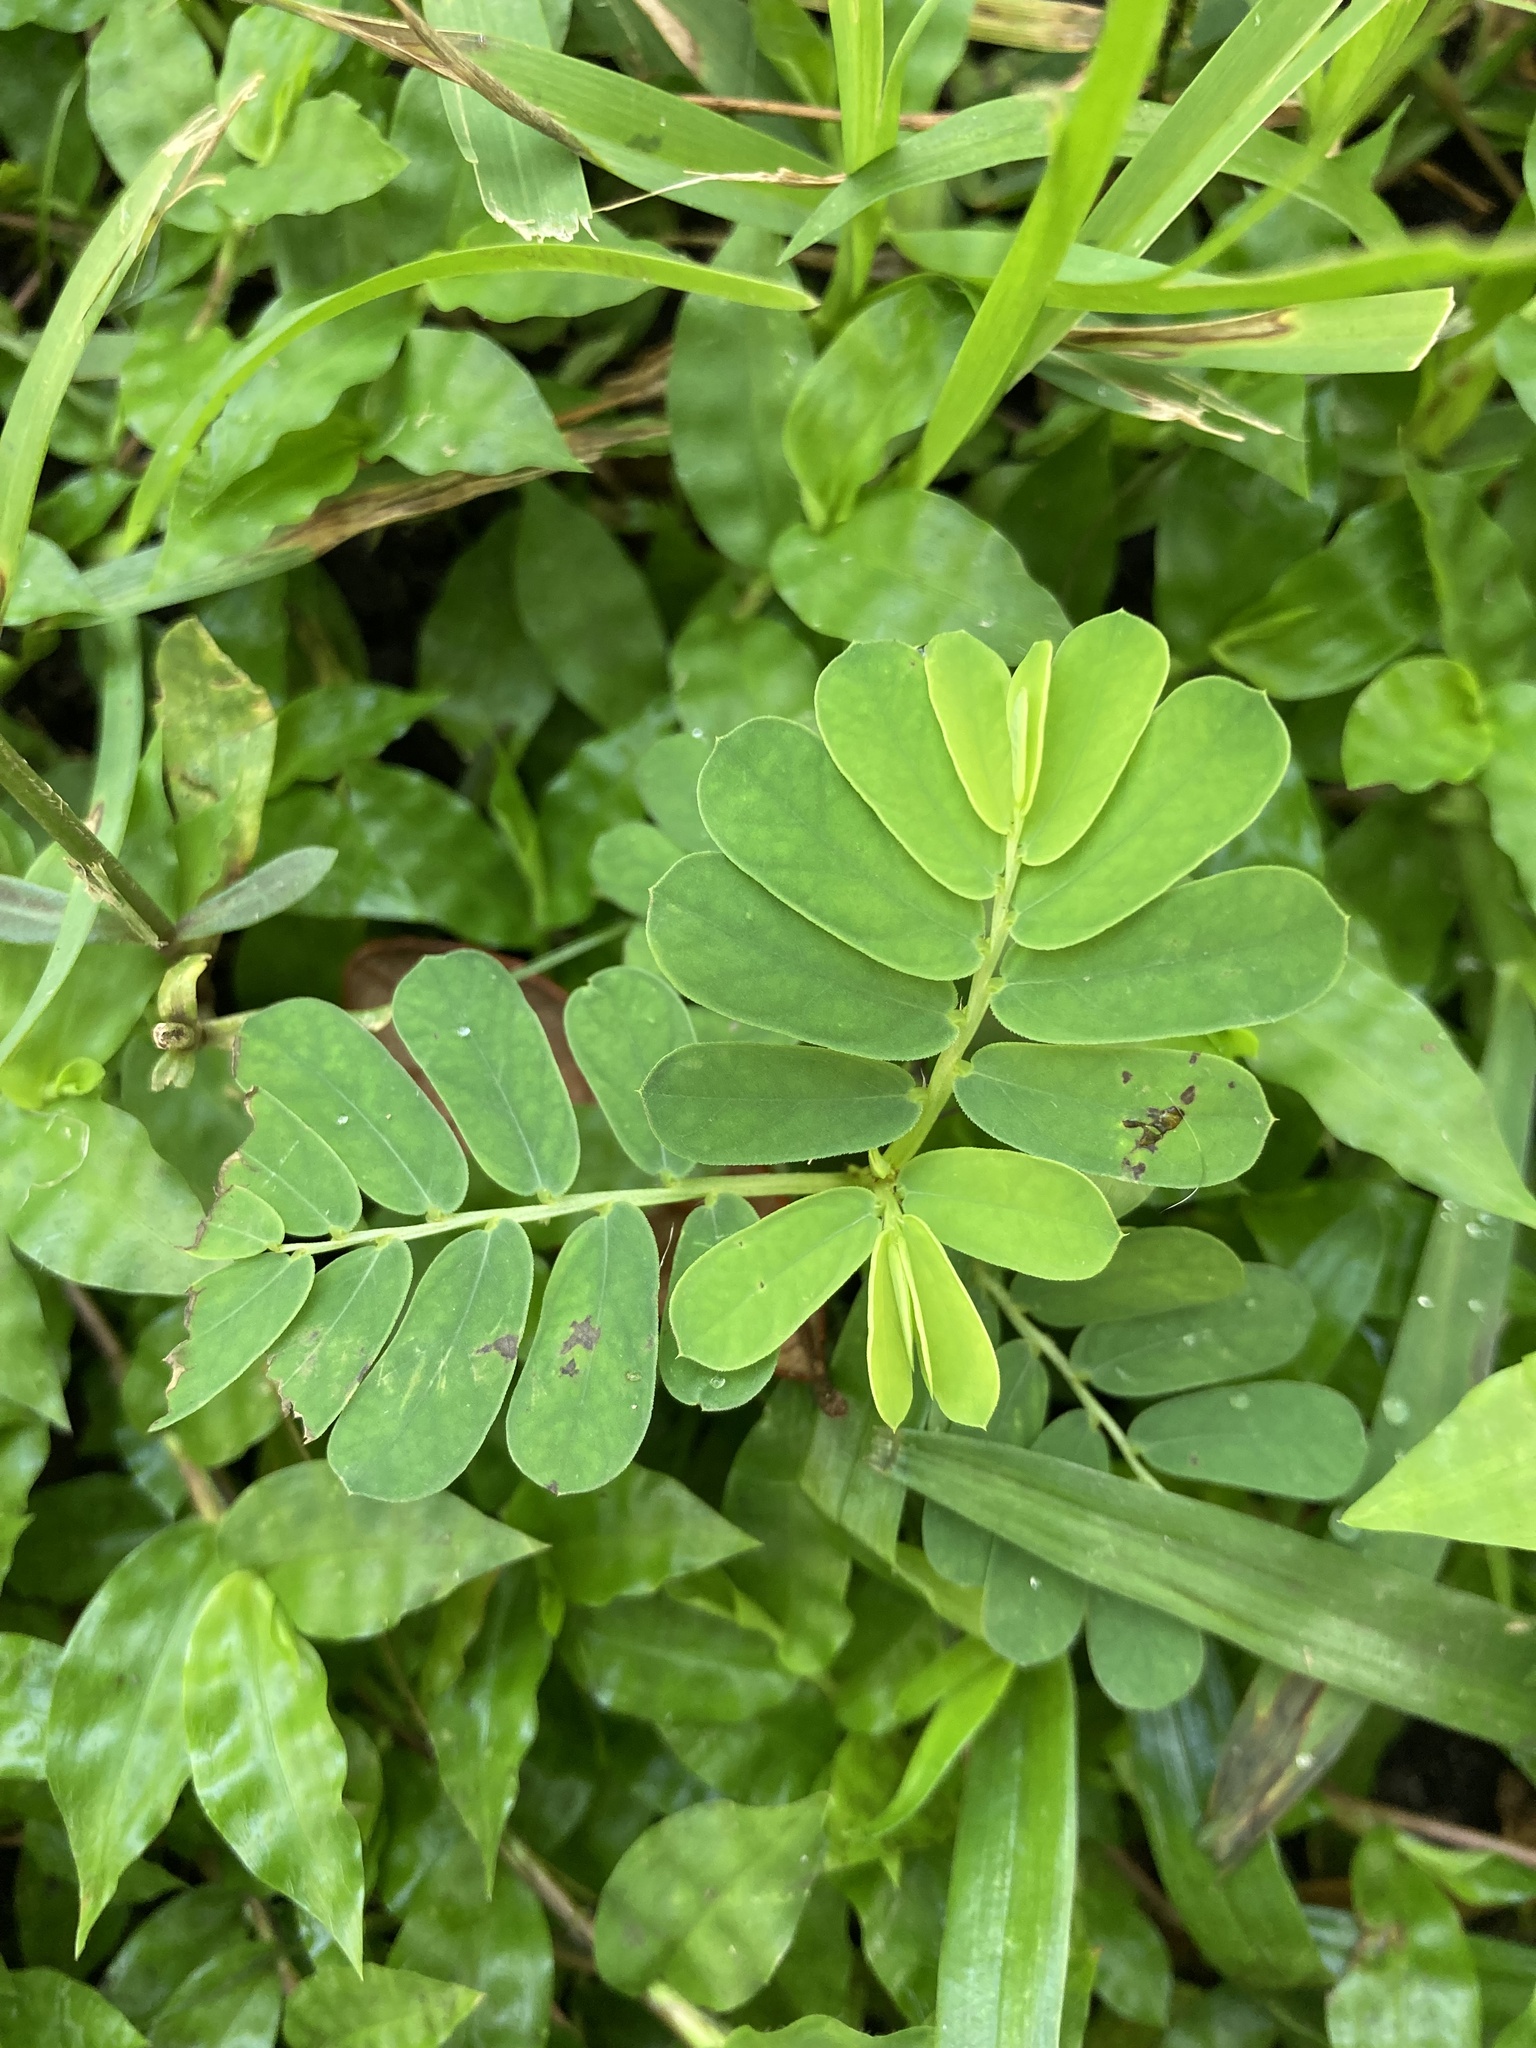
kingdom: Plantae
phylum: Tracheophyta
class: Magnoliopsida
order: Malpighiales
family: Phyllanthaceae
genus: Phyllanthus
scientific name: Phyllanthus urinaria
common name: Chamber bitter
